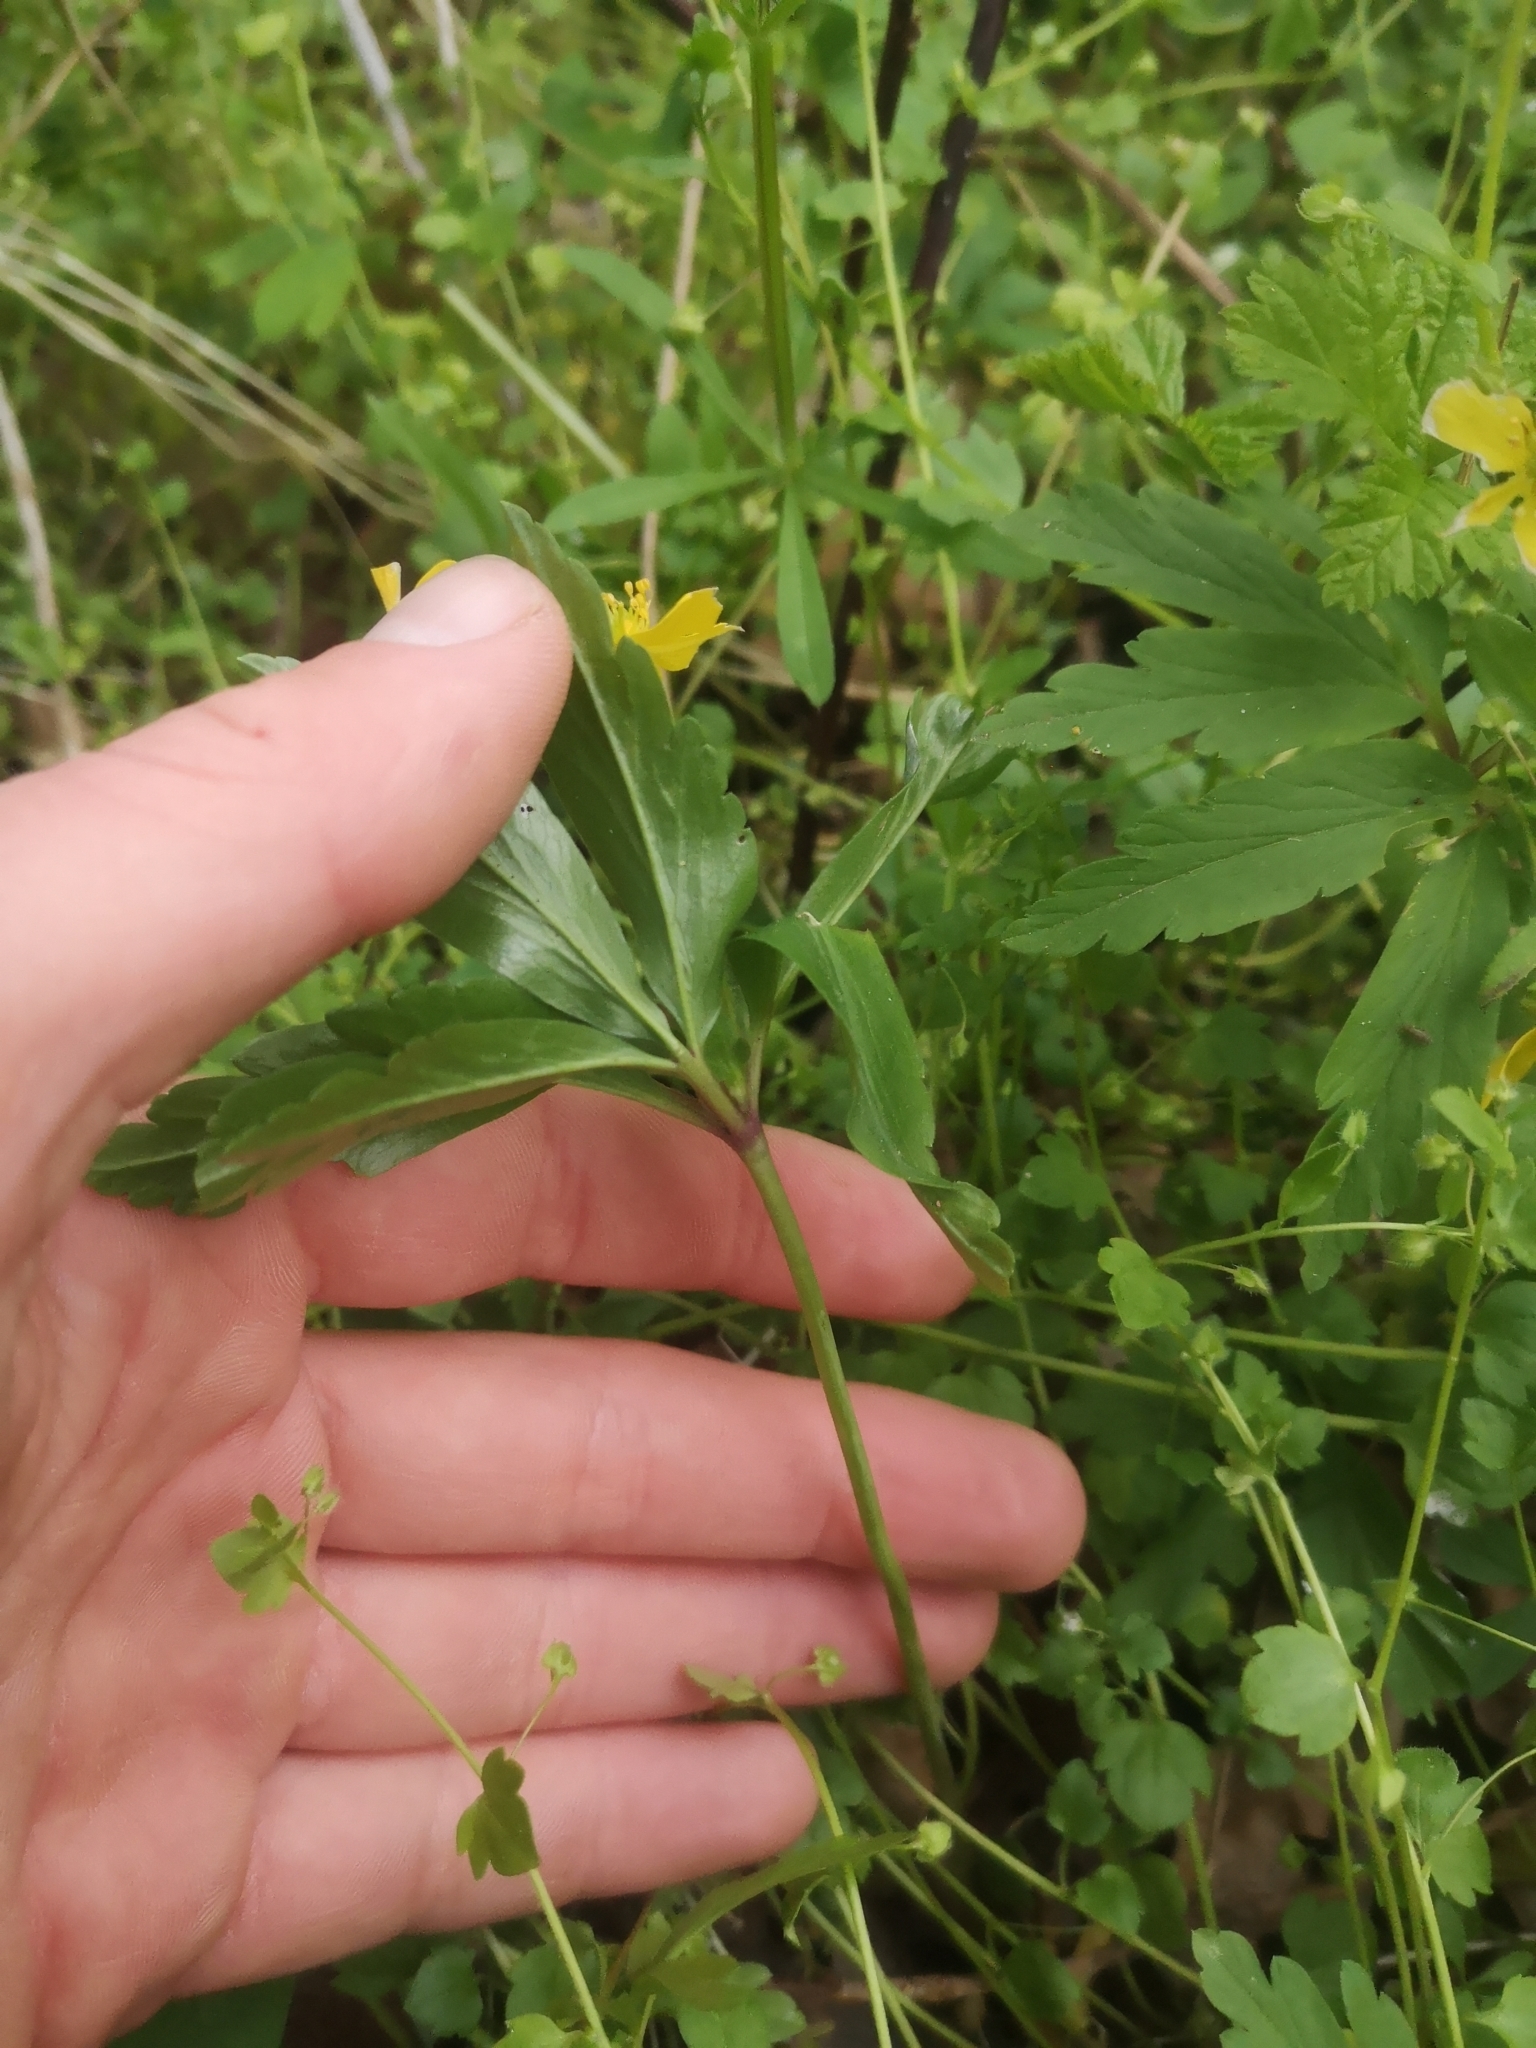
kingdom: Plantae
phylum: Tracheophyta
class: Magnoliopsida
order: Ranunculales
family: Ranunculaceae
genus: Anemone
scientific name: Anemone ranunculoides
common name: Yellow anemone
